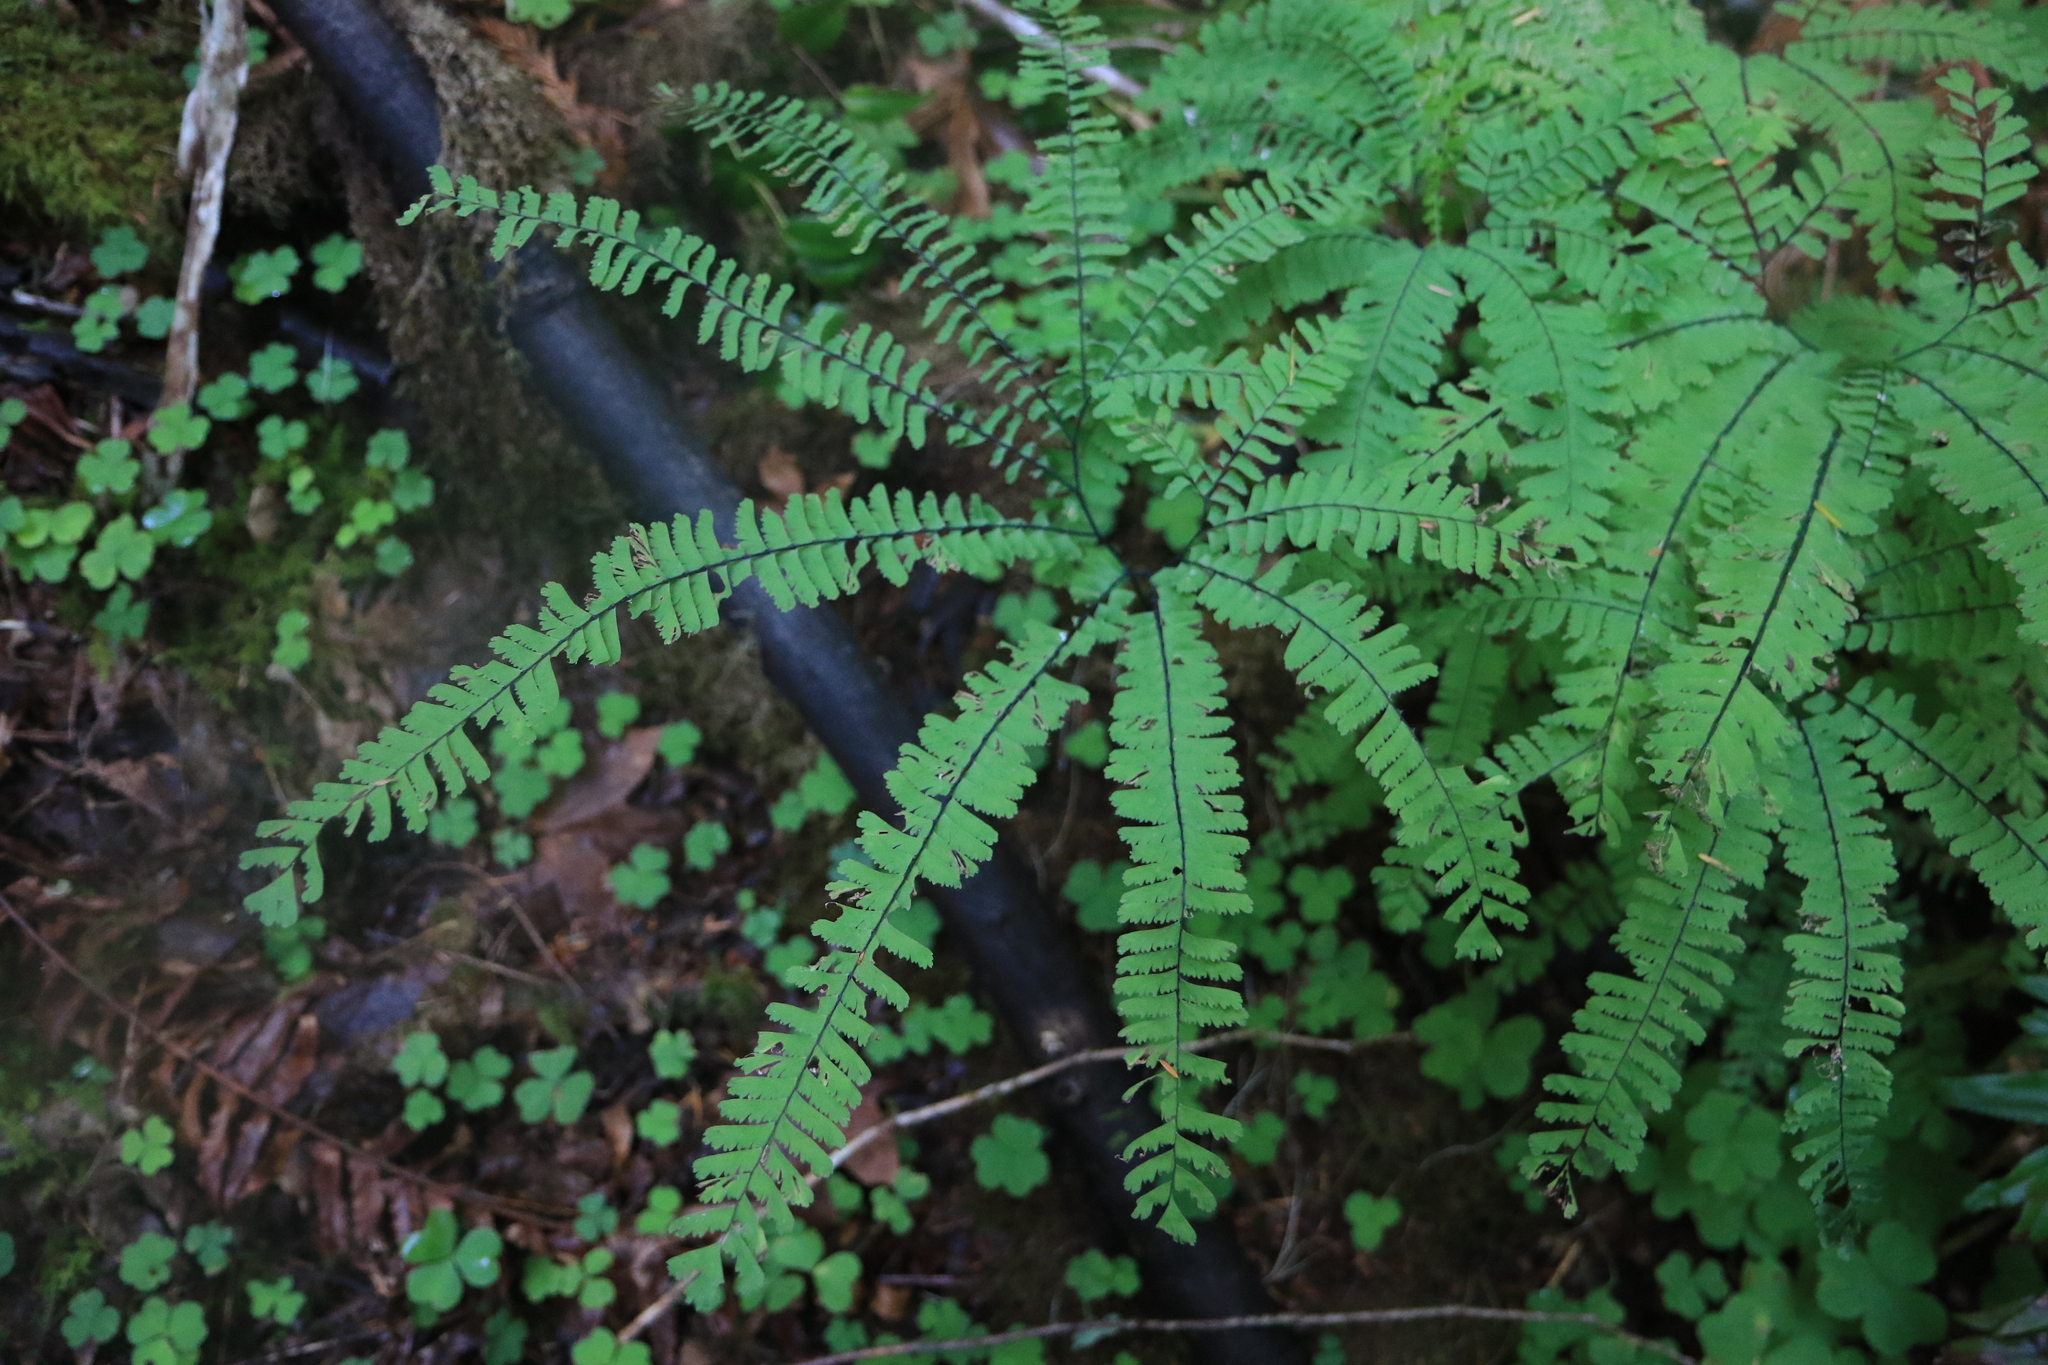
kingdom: Plantae
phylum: Tracheophyta
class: Polypodiopsida
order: Polypodiales
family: Pteridaceae
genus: Adiantum
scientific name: Adiantum aleuticum
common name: Aleutian maidenhair fern
